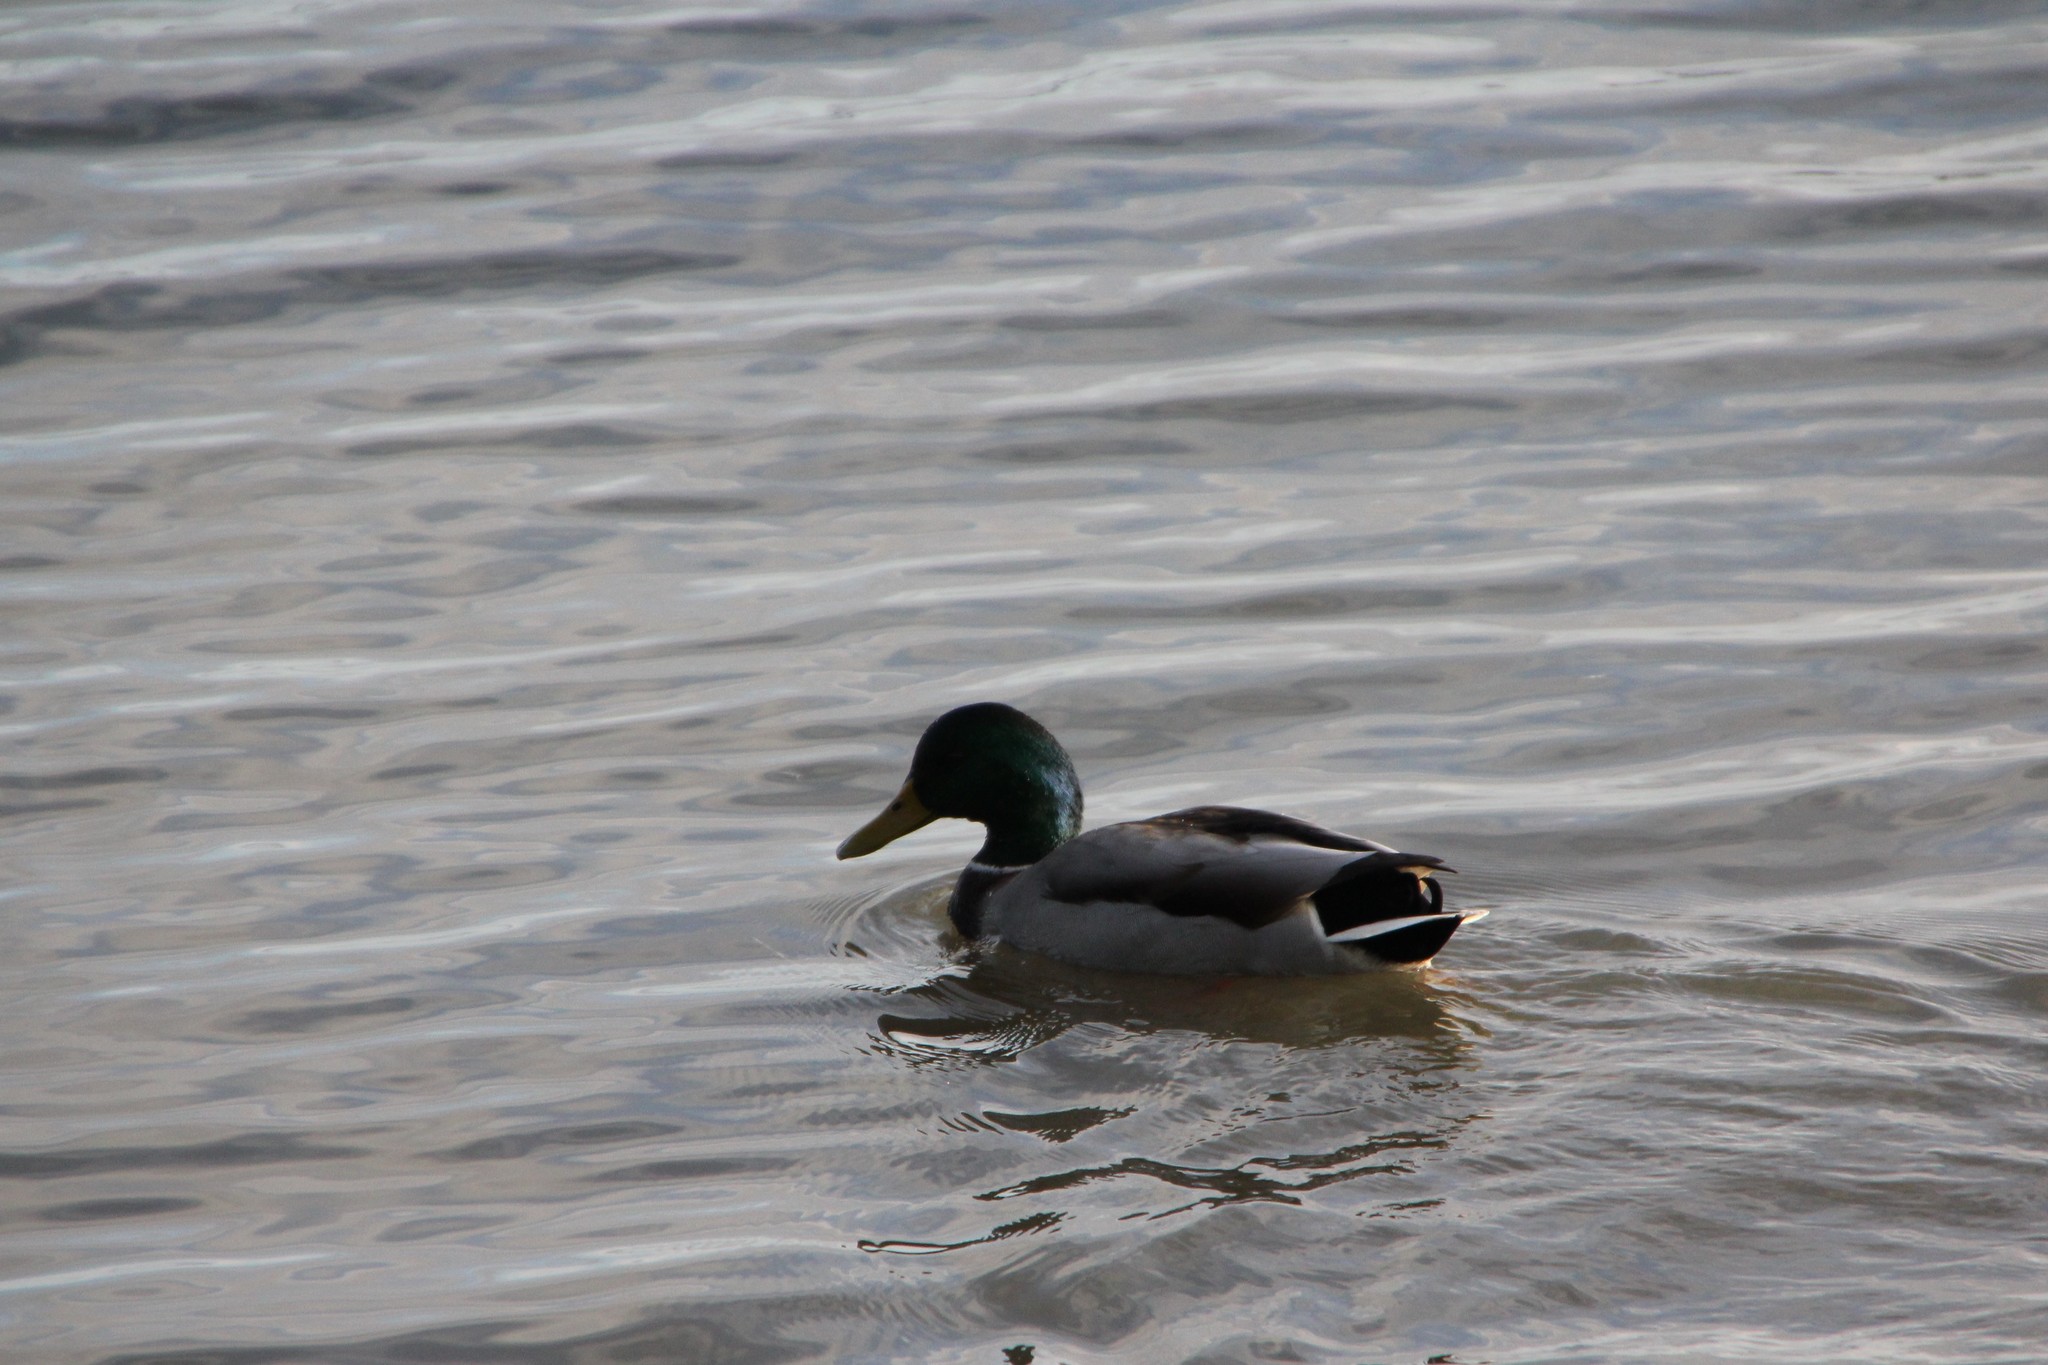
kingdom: Animalia
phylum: Chordata
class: Aves
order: Anseriformes
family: Anatidae
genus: Anas
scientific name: Anas platyrhynchos
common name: Mallard
